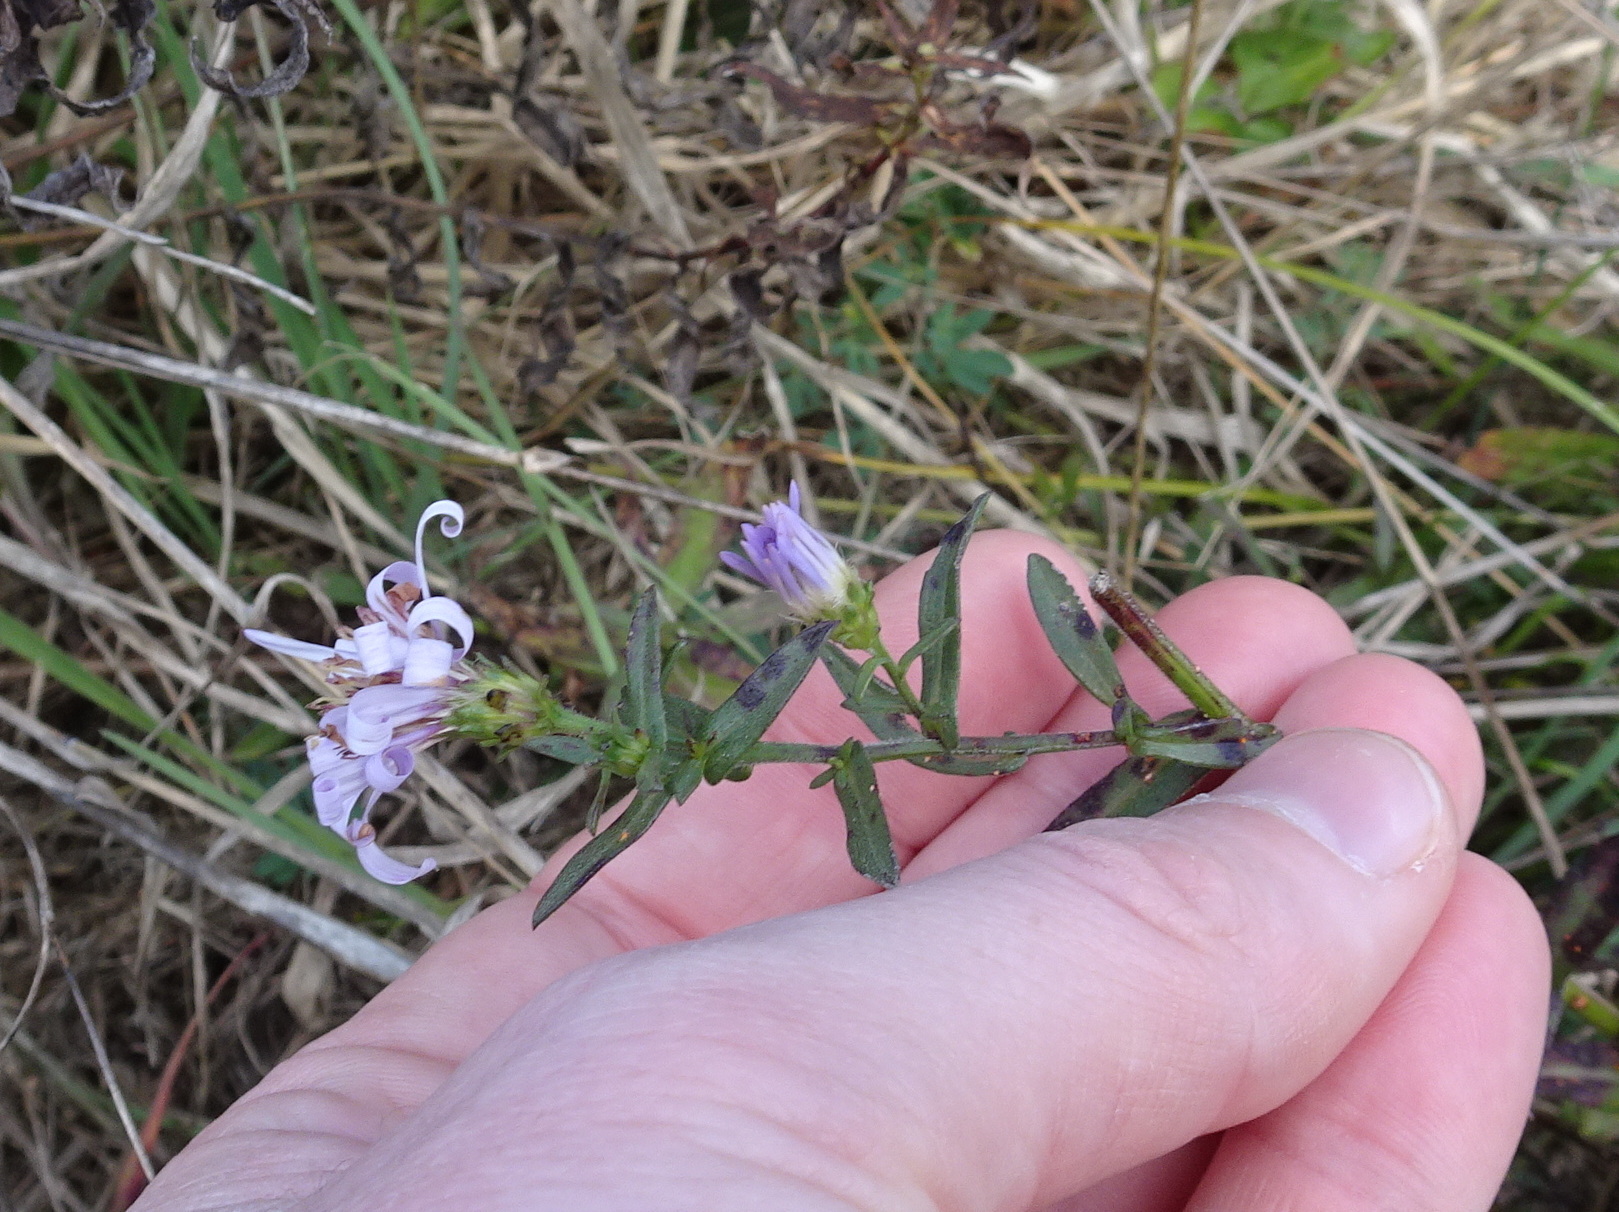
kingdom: Plantae
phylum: Tracheophyta
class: Magnoliopsida
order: Asterales
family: Asteraceae
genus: Symphyotrichum
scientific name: Symphyotrichum chilense
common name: Pacific aster
